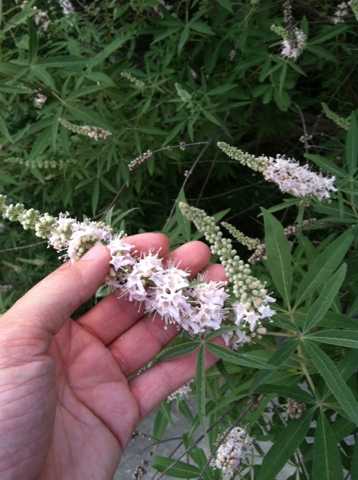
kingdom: Plantae
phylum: Tracheophyta
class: Magnoliopsida
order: Lamiales
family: Lamiaceae
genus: Vitex
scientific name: Vitex agnus-castus
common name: Chasteberry
